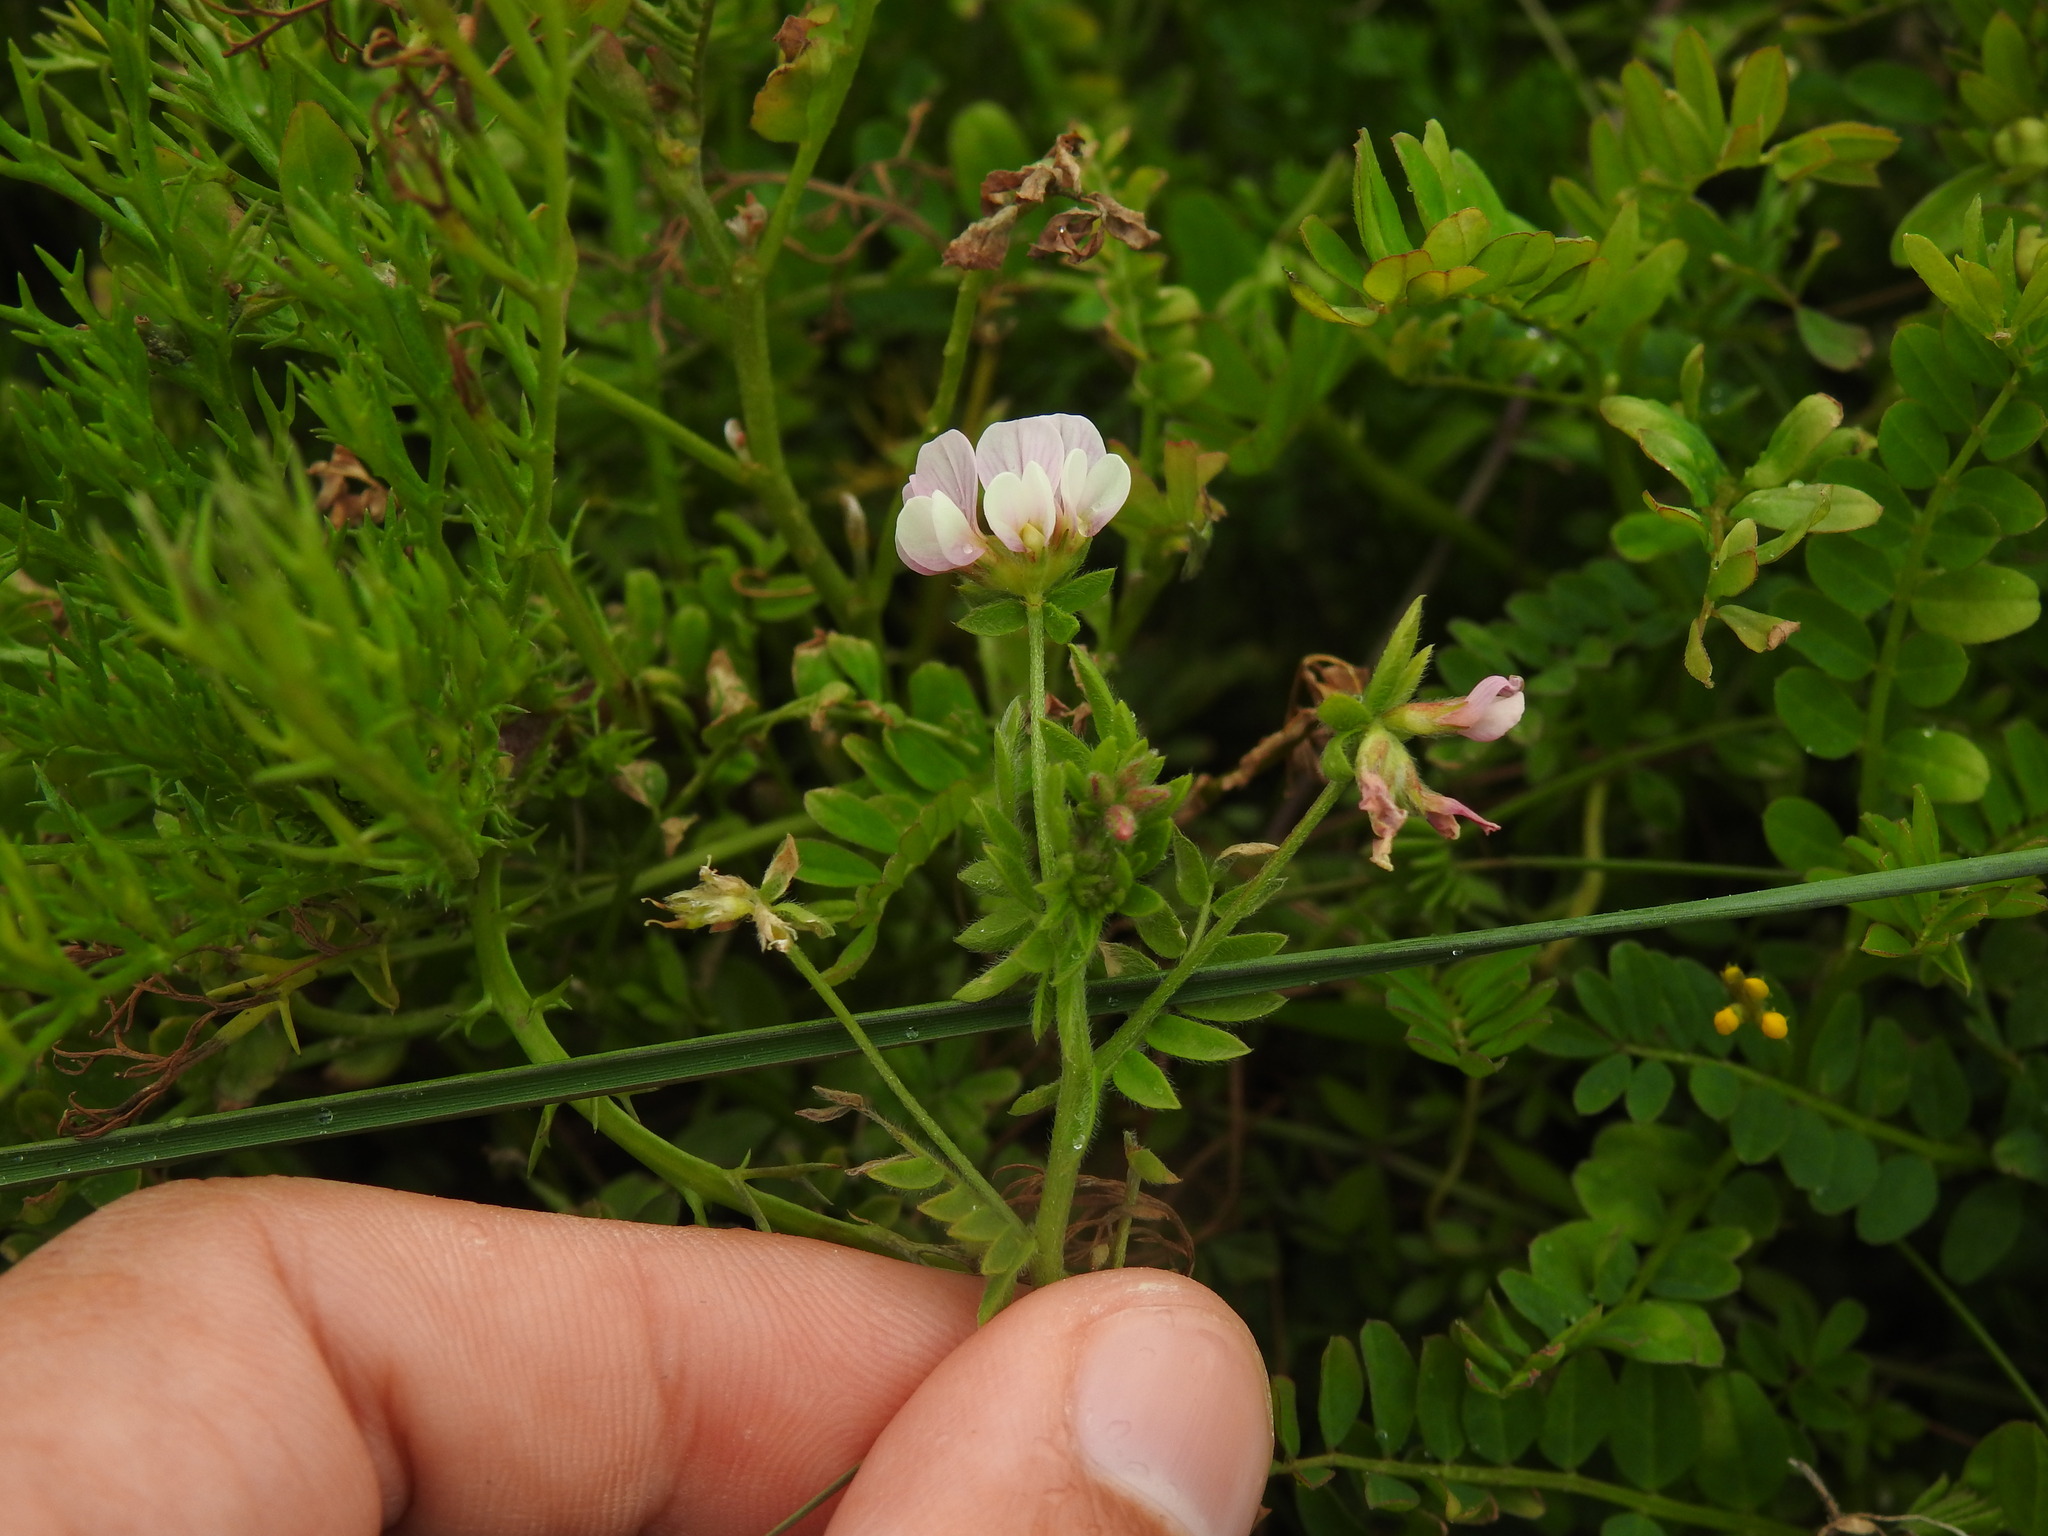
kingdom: Plantae
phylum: Tracheophyta
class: Magnoliopsida
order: Fabales
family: Fabaceae
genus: Ornithopus
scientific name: Ornithopus sativus
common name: Serradella
